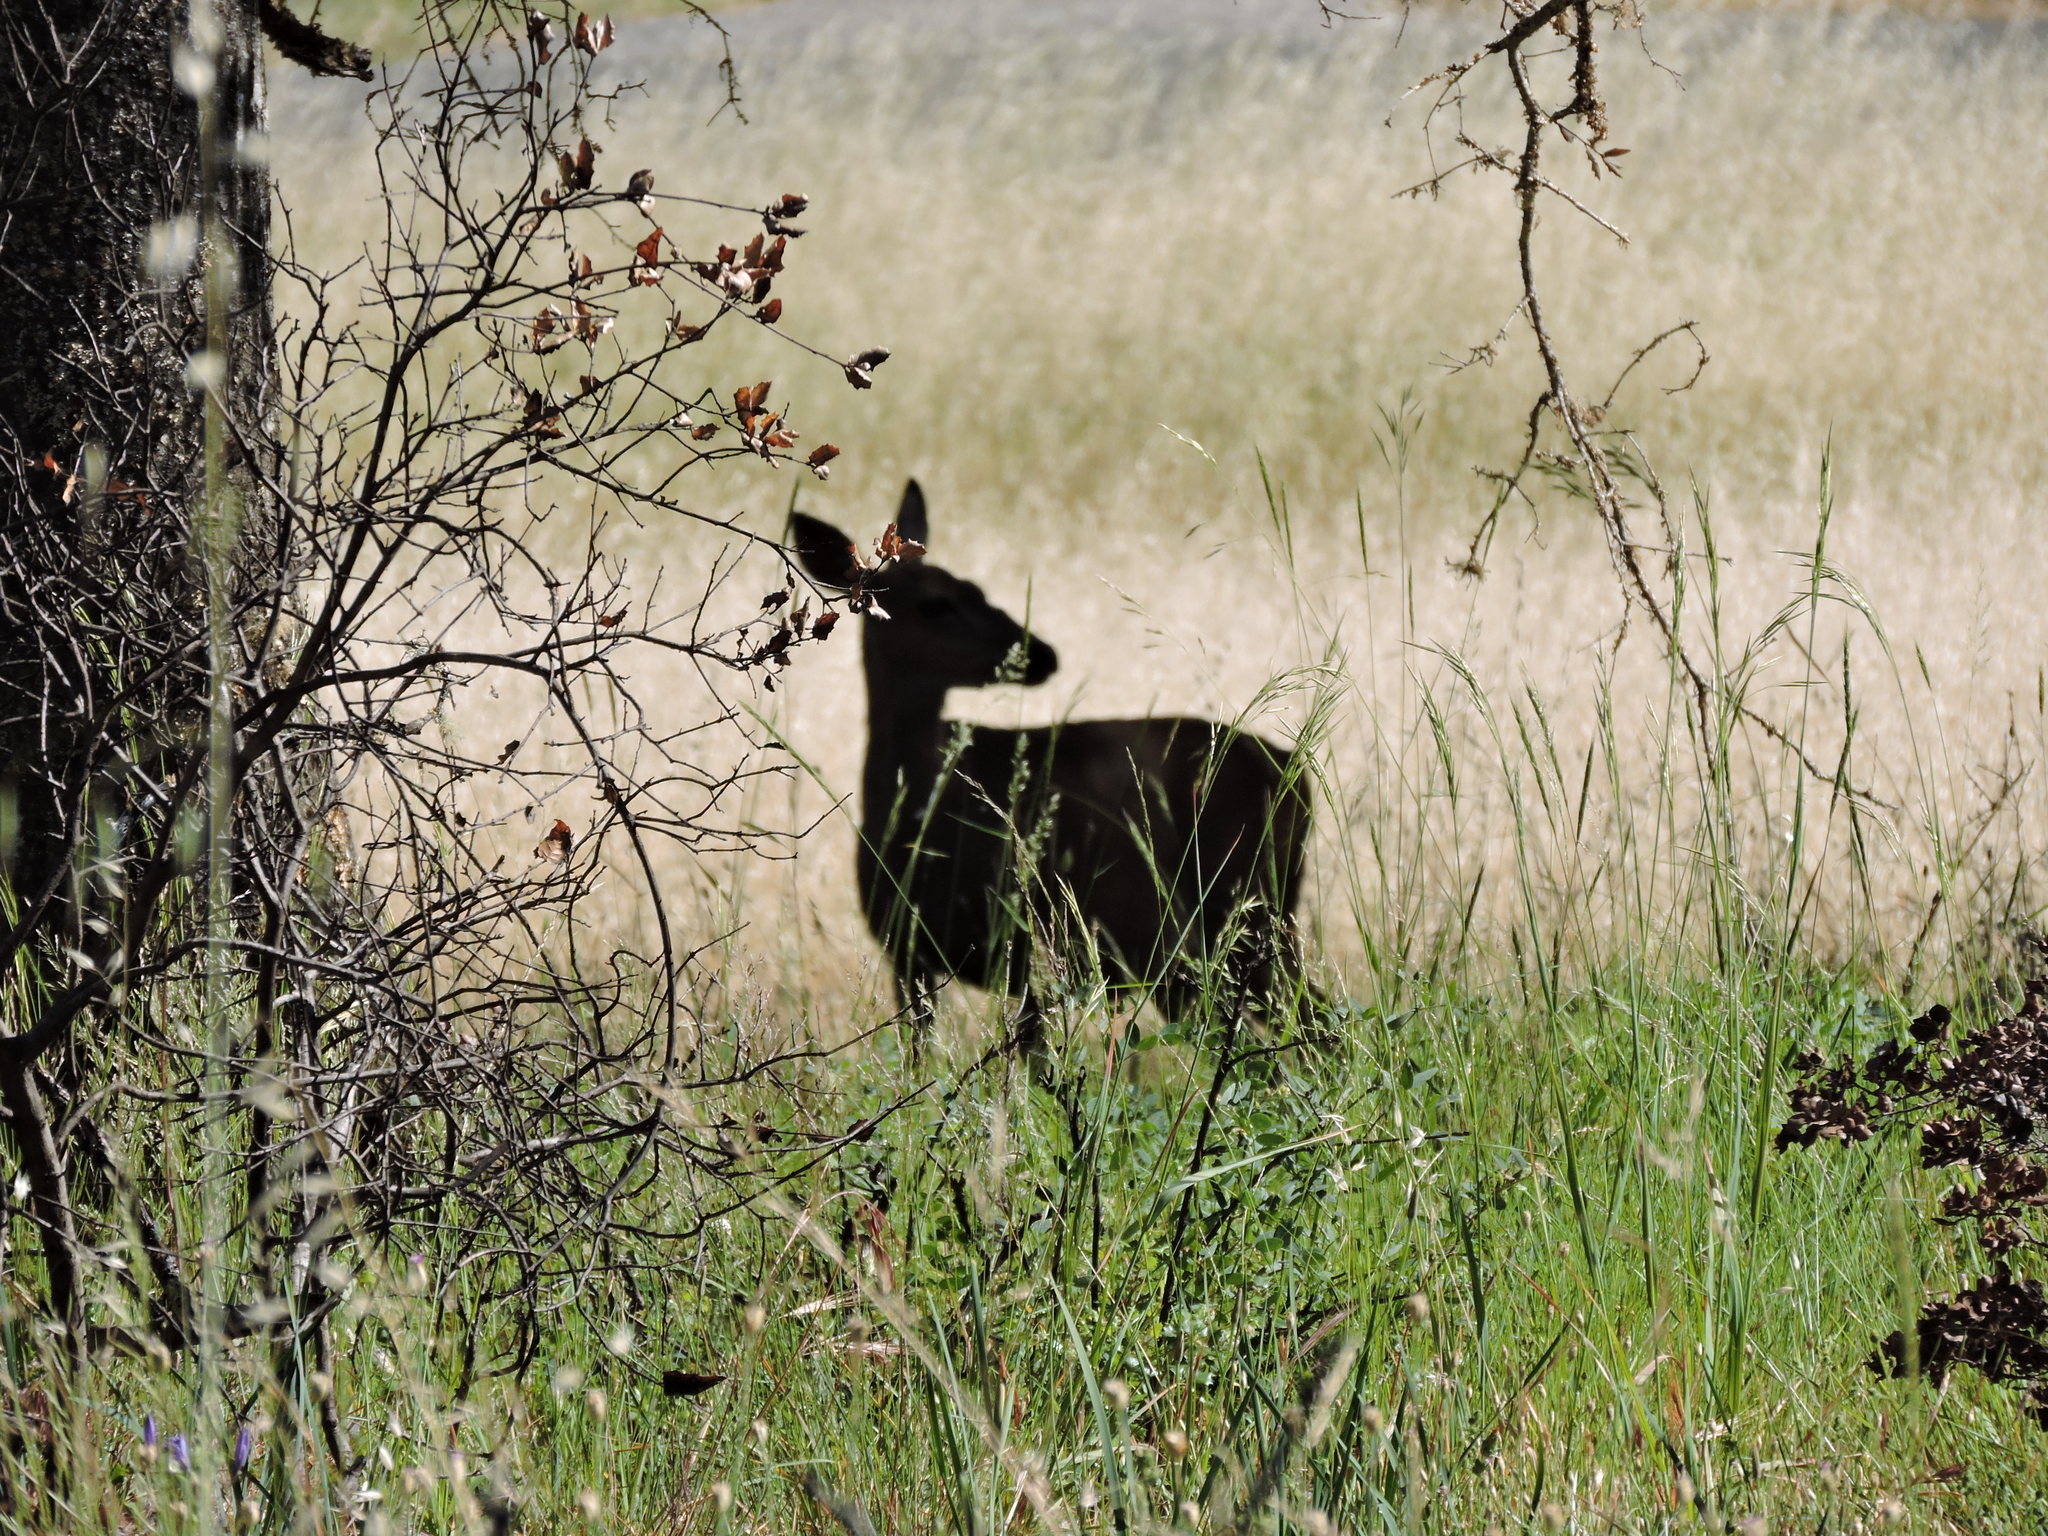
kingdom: Animalia
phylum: Chordata
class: Mammalia
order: Artiodactyla
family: Cervidae
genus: Odocoileus
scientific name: Odocoileus hemionus
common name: Mule deer
